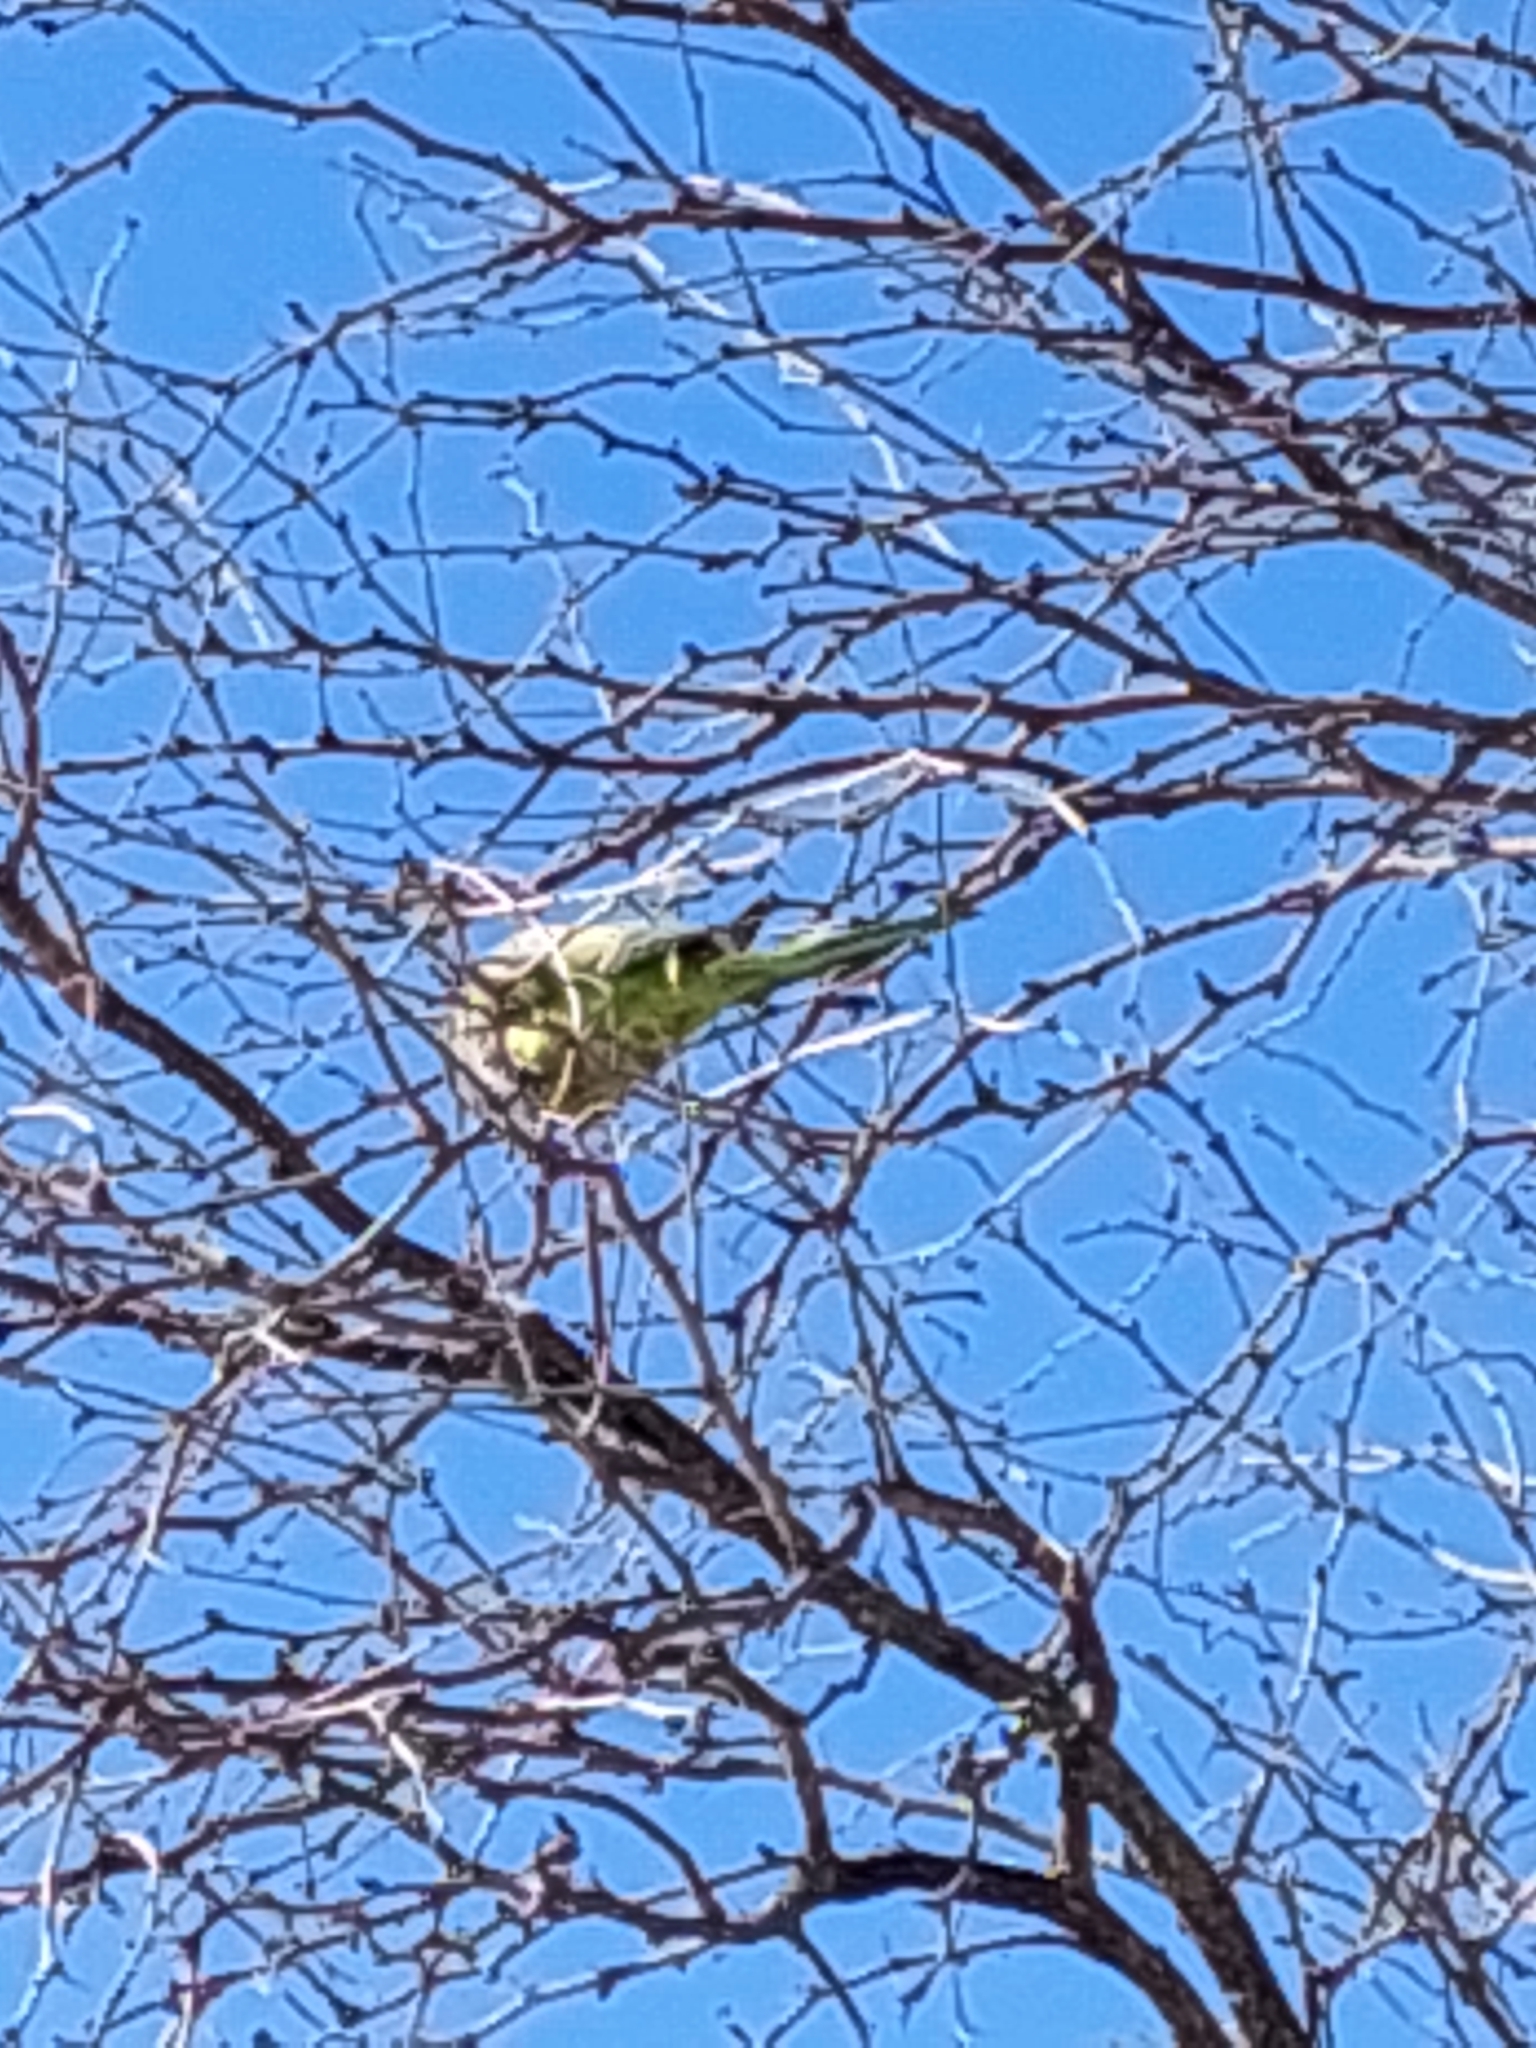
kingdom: Animalia
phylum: Chordata
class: Aves
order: Psittaciformes
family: Psittacidae
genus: Myiopsitta
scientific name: Myiopsitta monachus
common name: Monk parakeet
